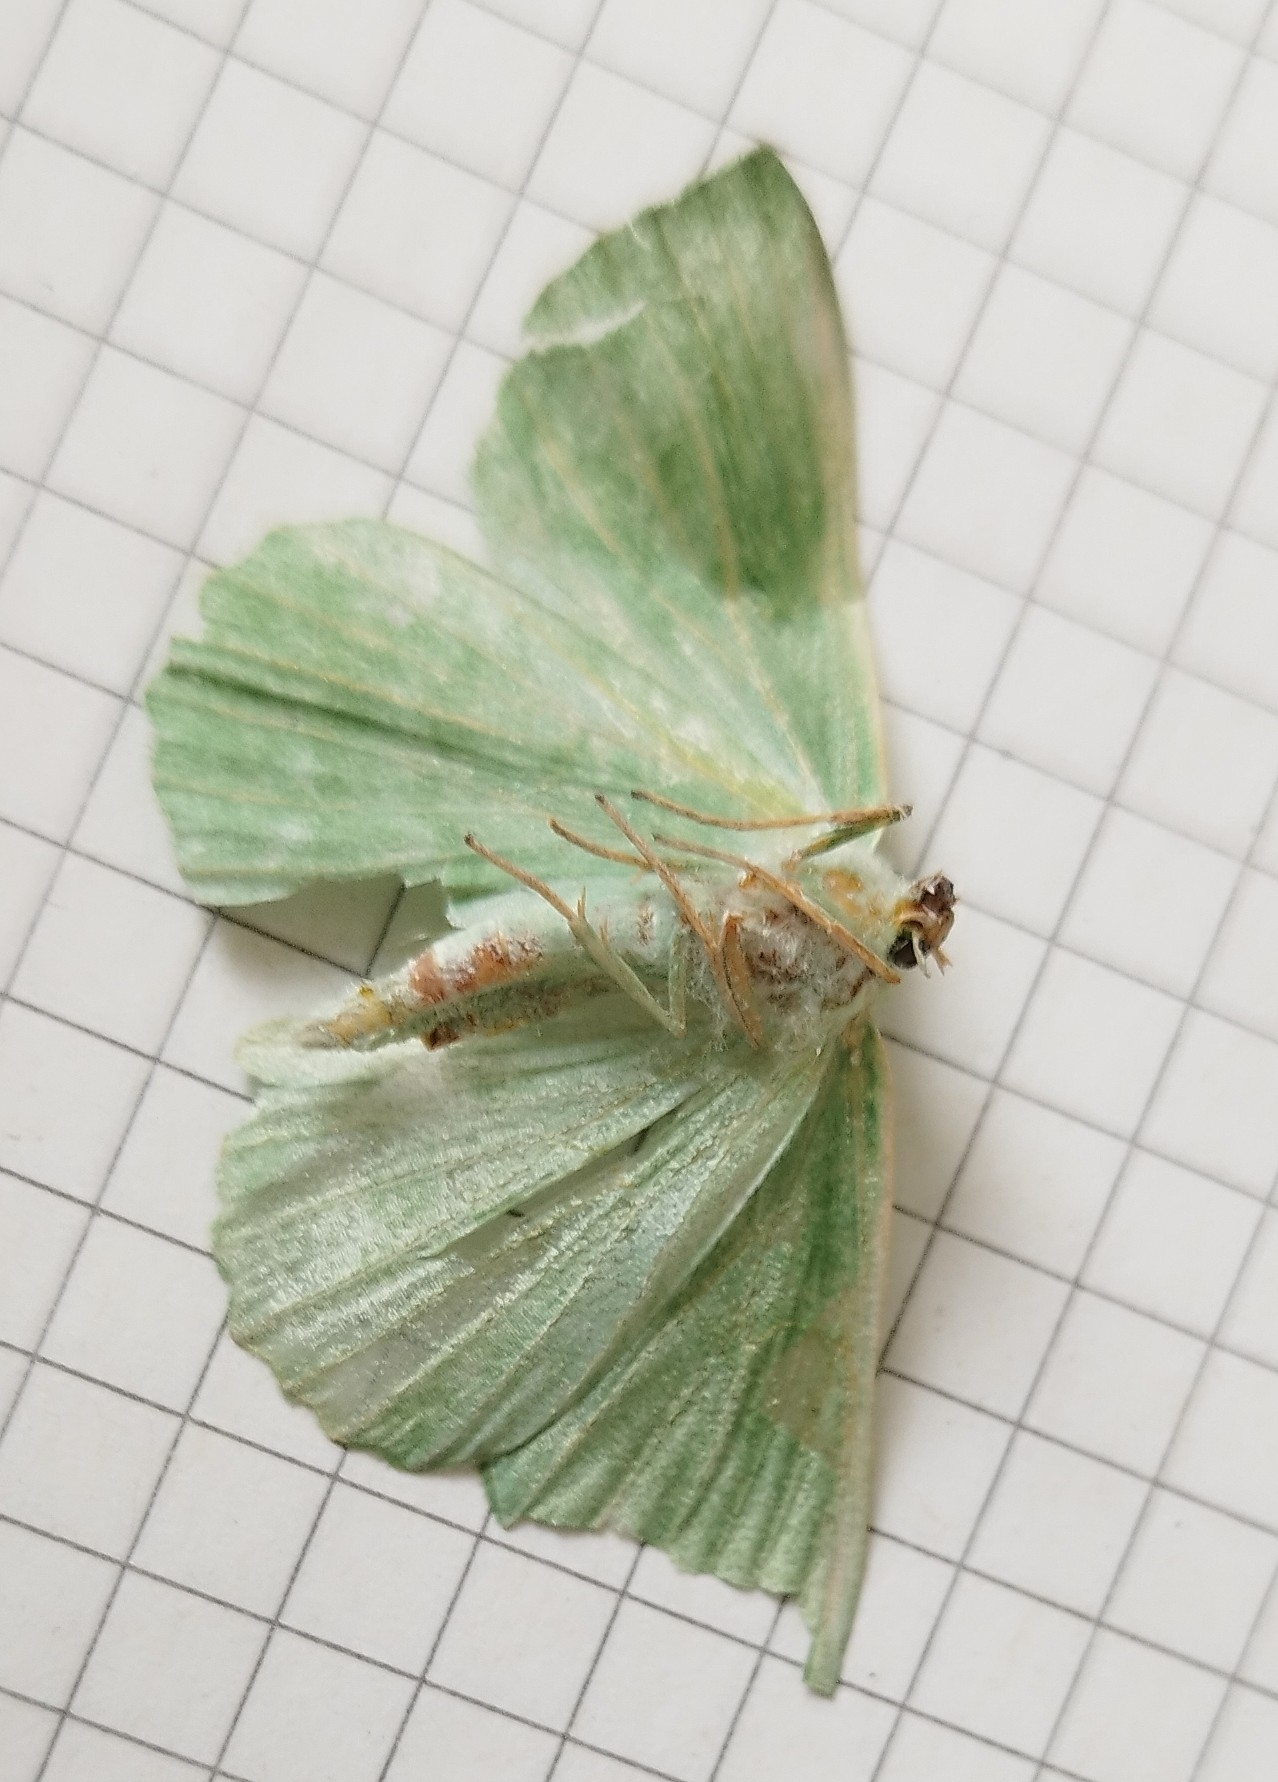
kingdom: Animalia
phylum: Arthropoda
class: Insecta
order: Lepidoptera
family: Geometridae
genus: Geometra
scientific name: Geometra papilionaria
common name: Large emerald
